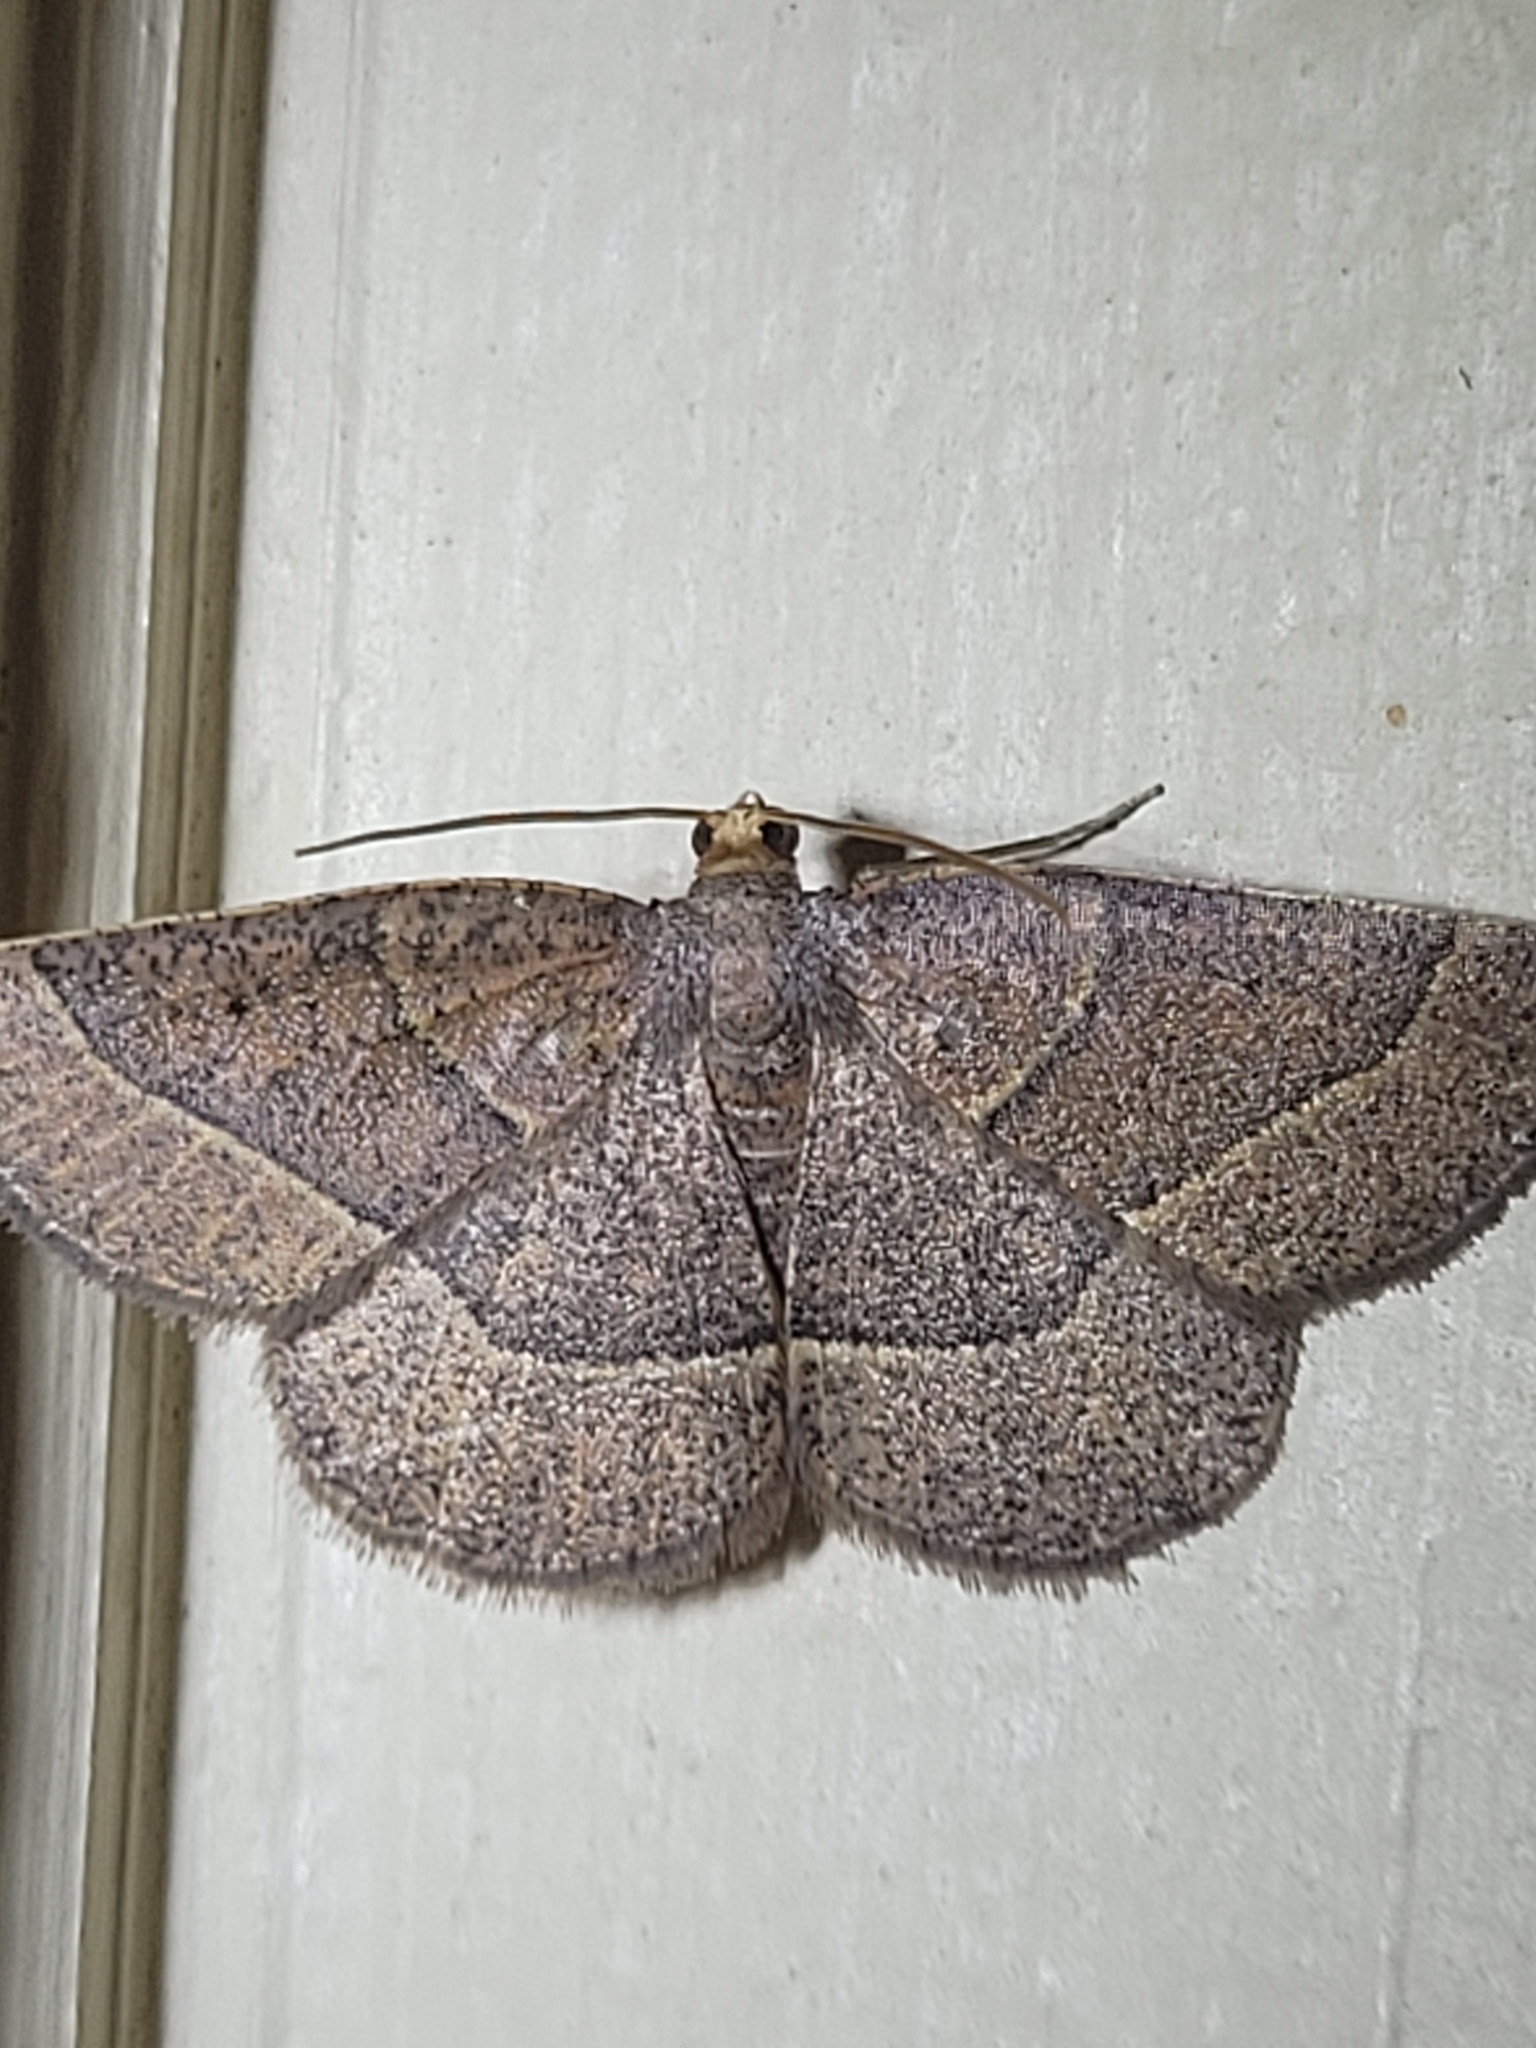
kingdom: Animalia
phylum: Arthropoda
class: Insecta
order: Lepidoptera
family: Geometridae
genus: Episemasia
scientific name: Episemasia cervinaria
